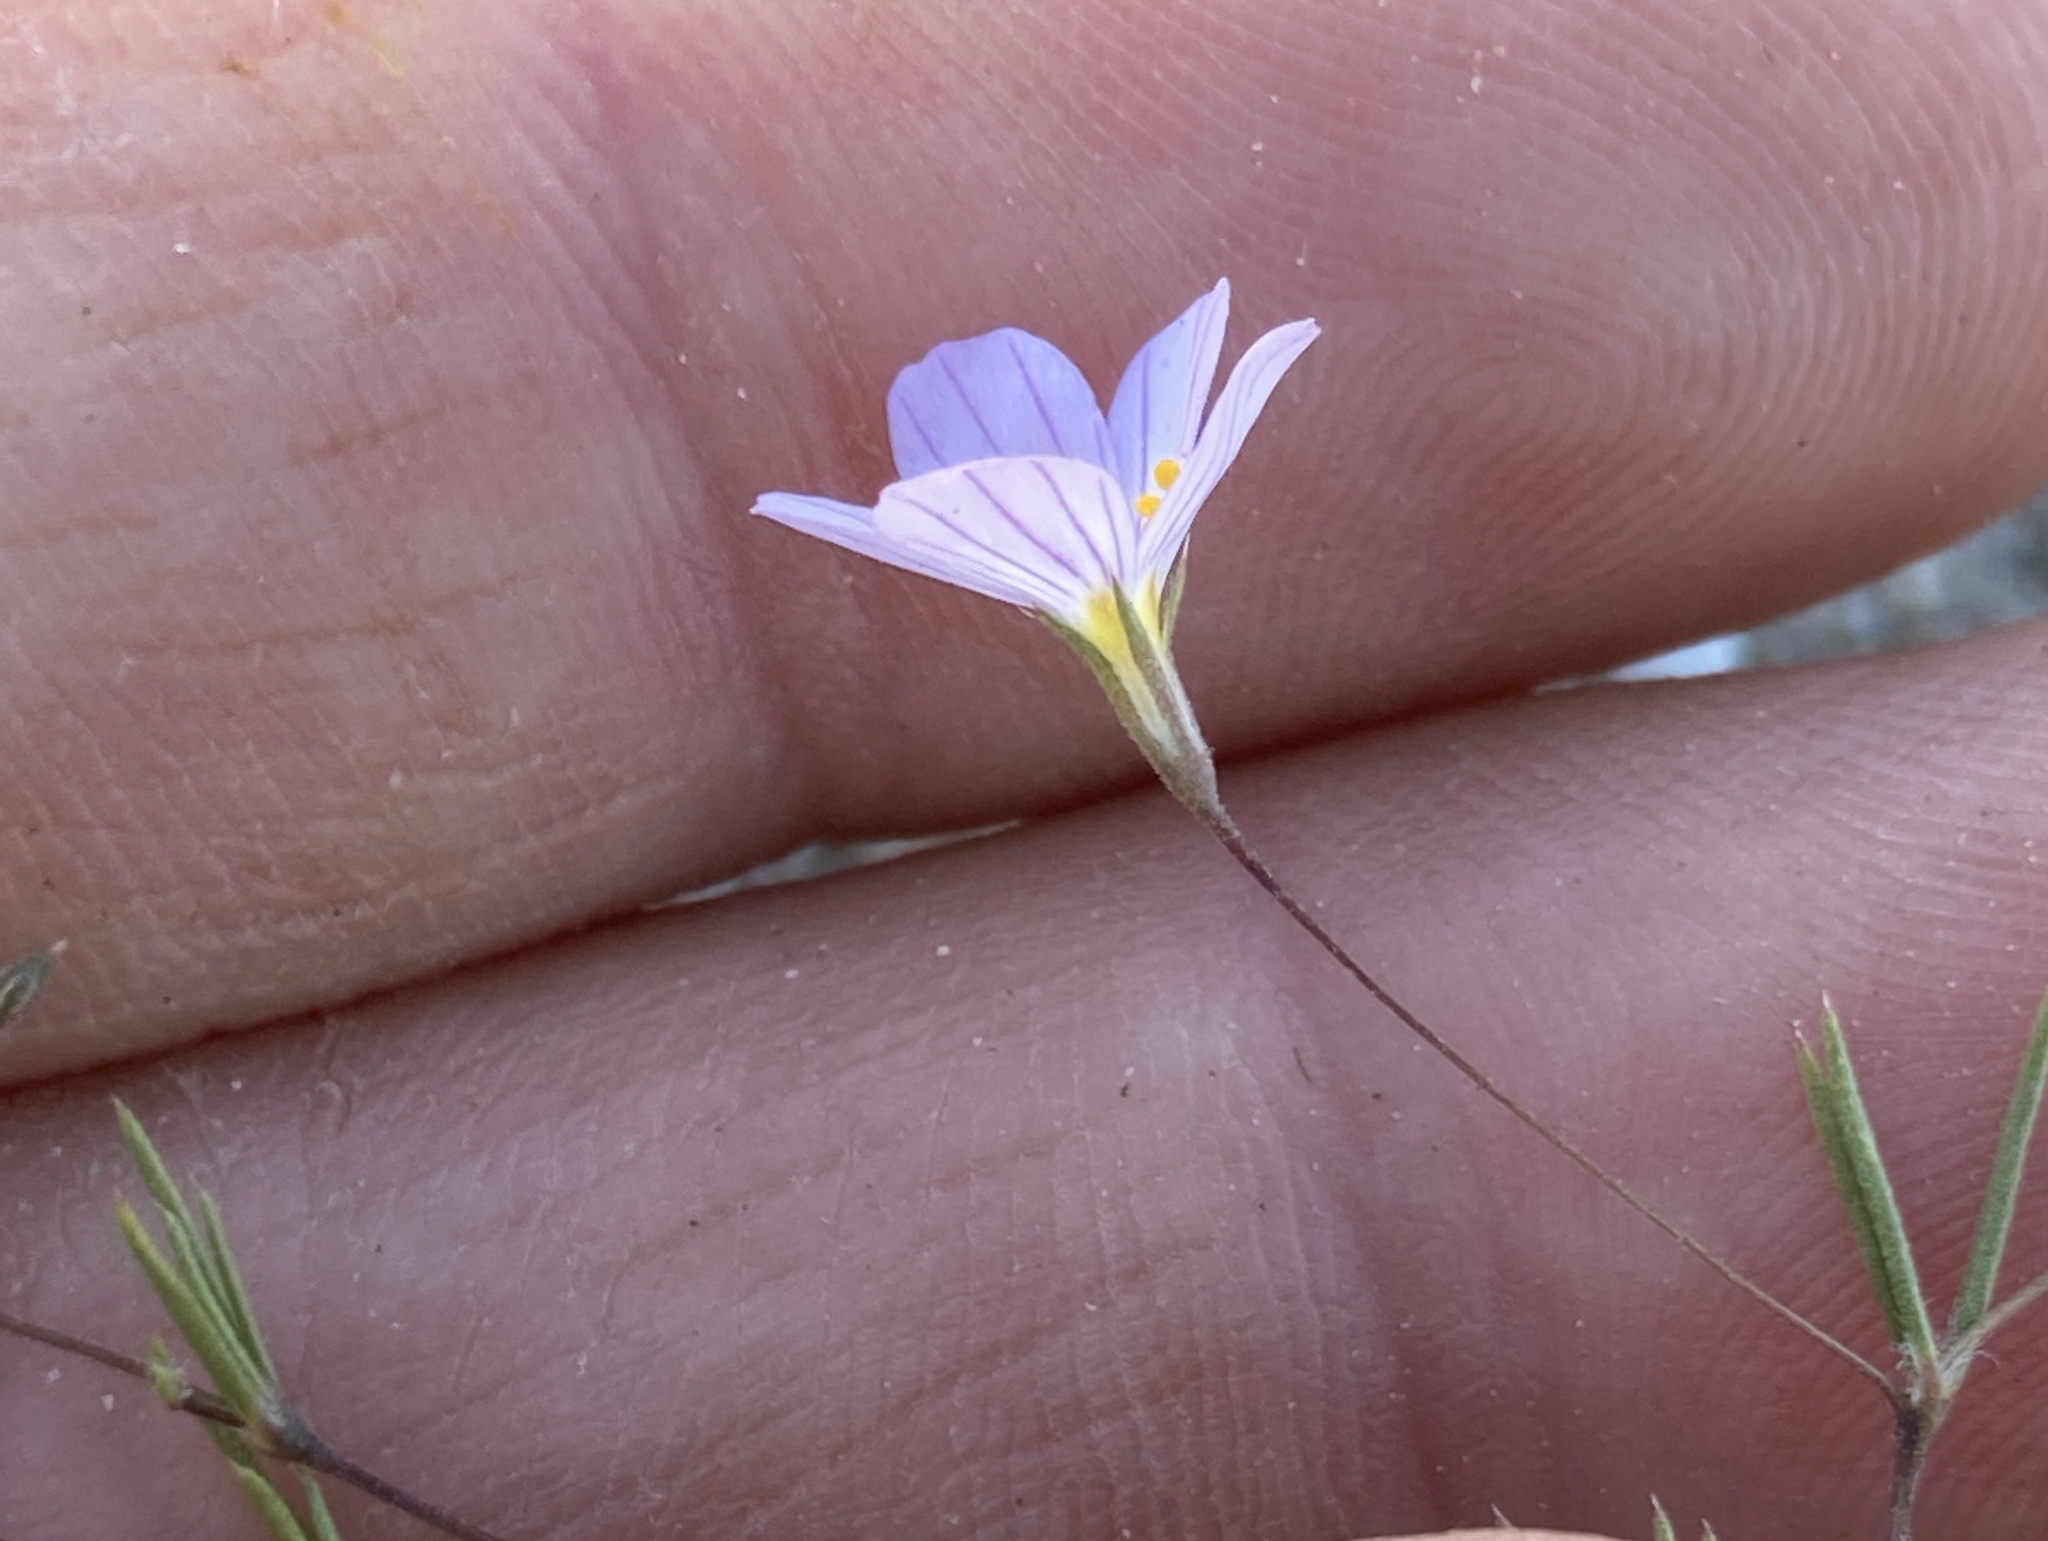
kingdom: Plantae
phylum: Tracheophyta
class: Magnoliopsida
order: Ericales
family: Polemoniaceae
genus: Leptosiphon
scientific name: Leptosiphon liniflorus
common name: Narrowflower flaxflower
